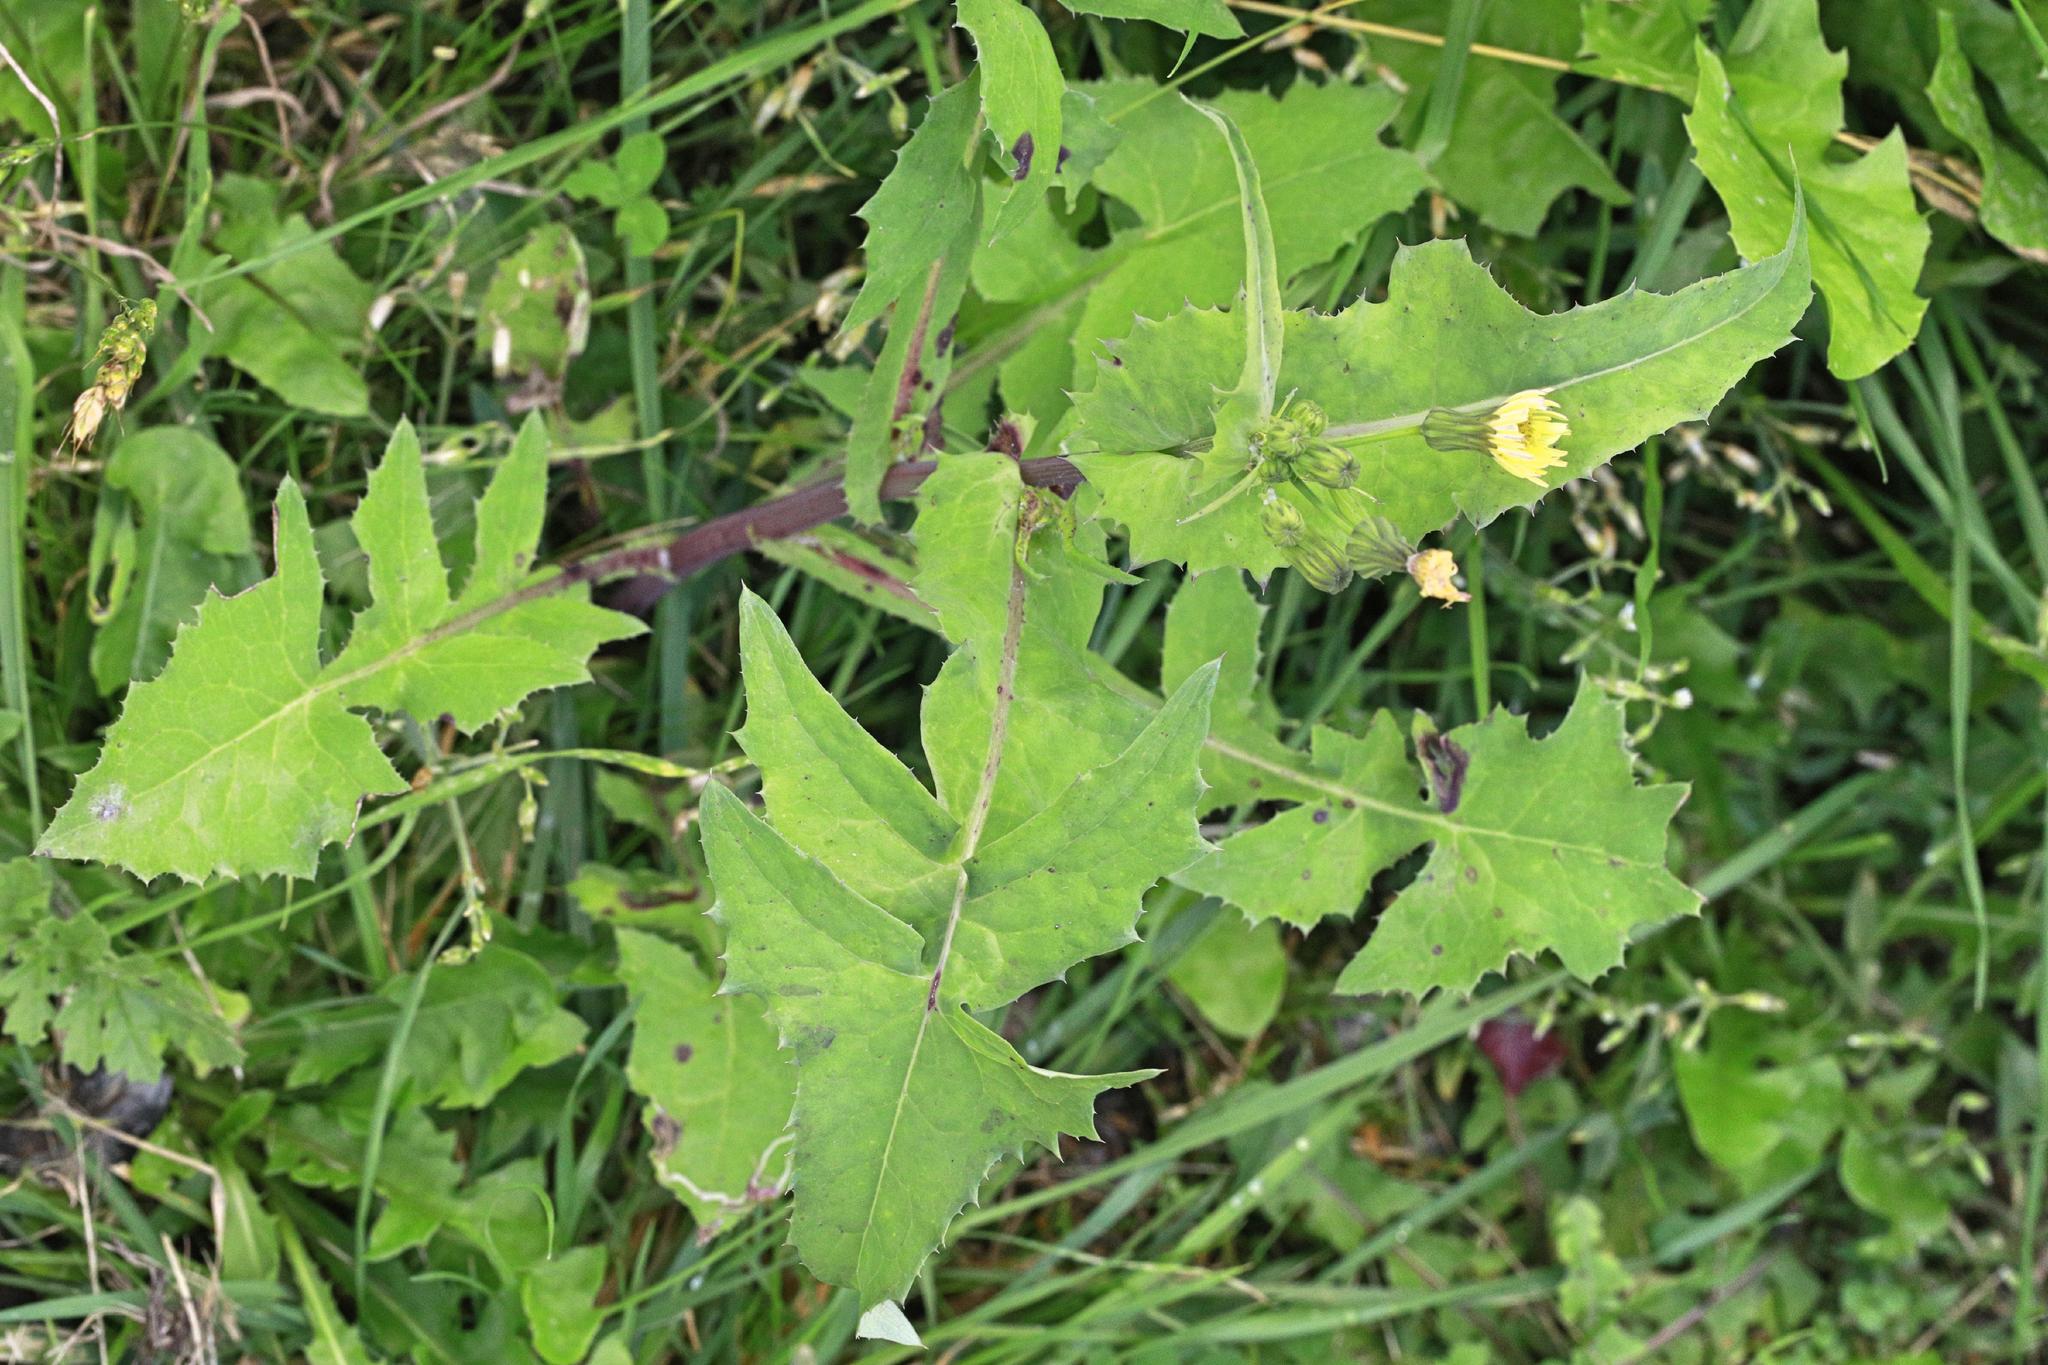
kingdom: Plantae
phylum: Tracheophyta
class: Magnoliopsida
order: Asterales
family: Asteraceae
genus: Sonchus
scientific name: Sonchus oleraceus
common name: Common sowthistle
